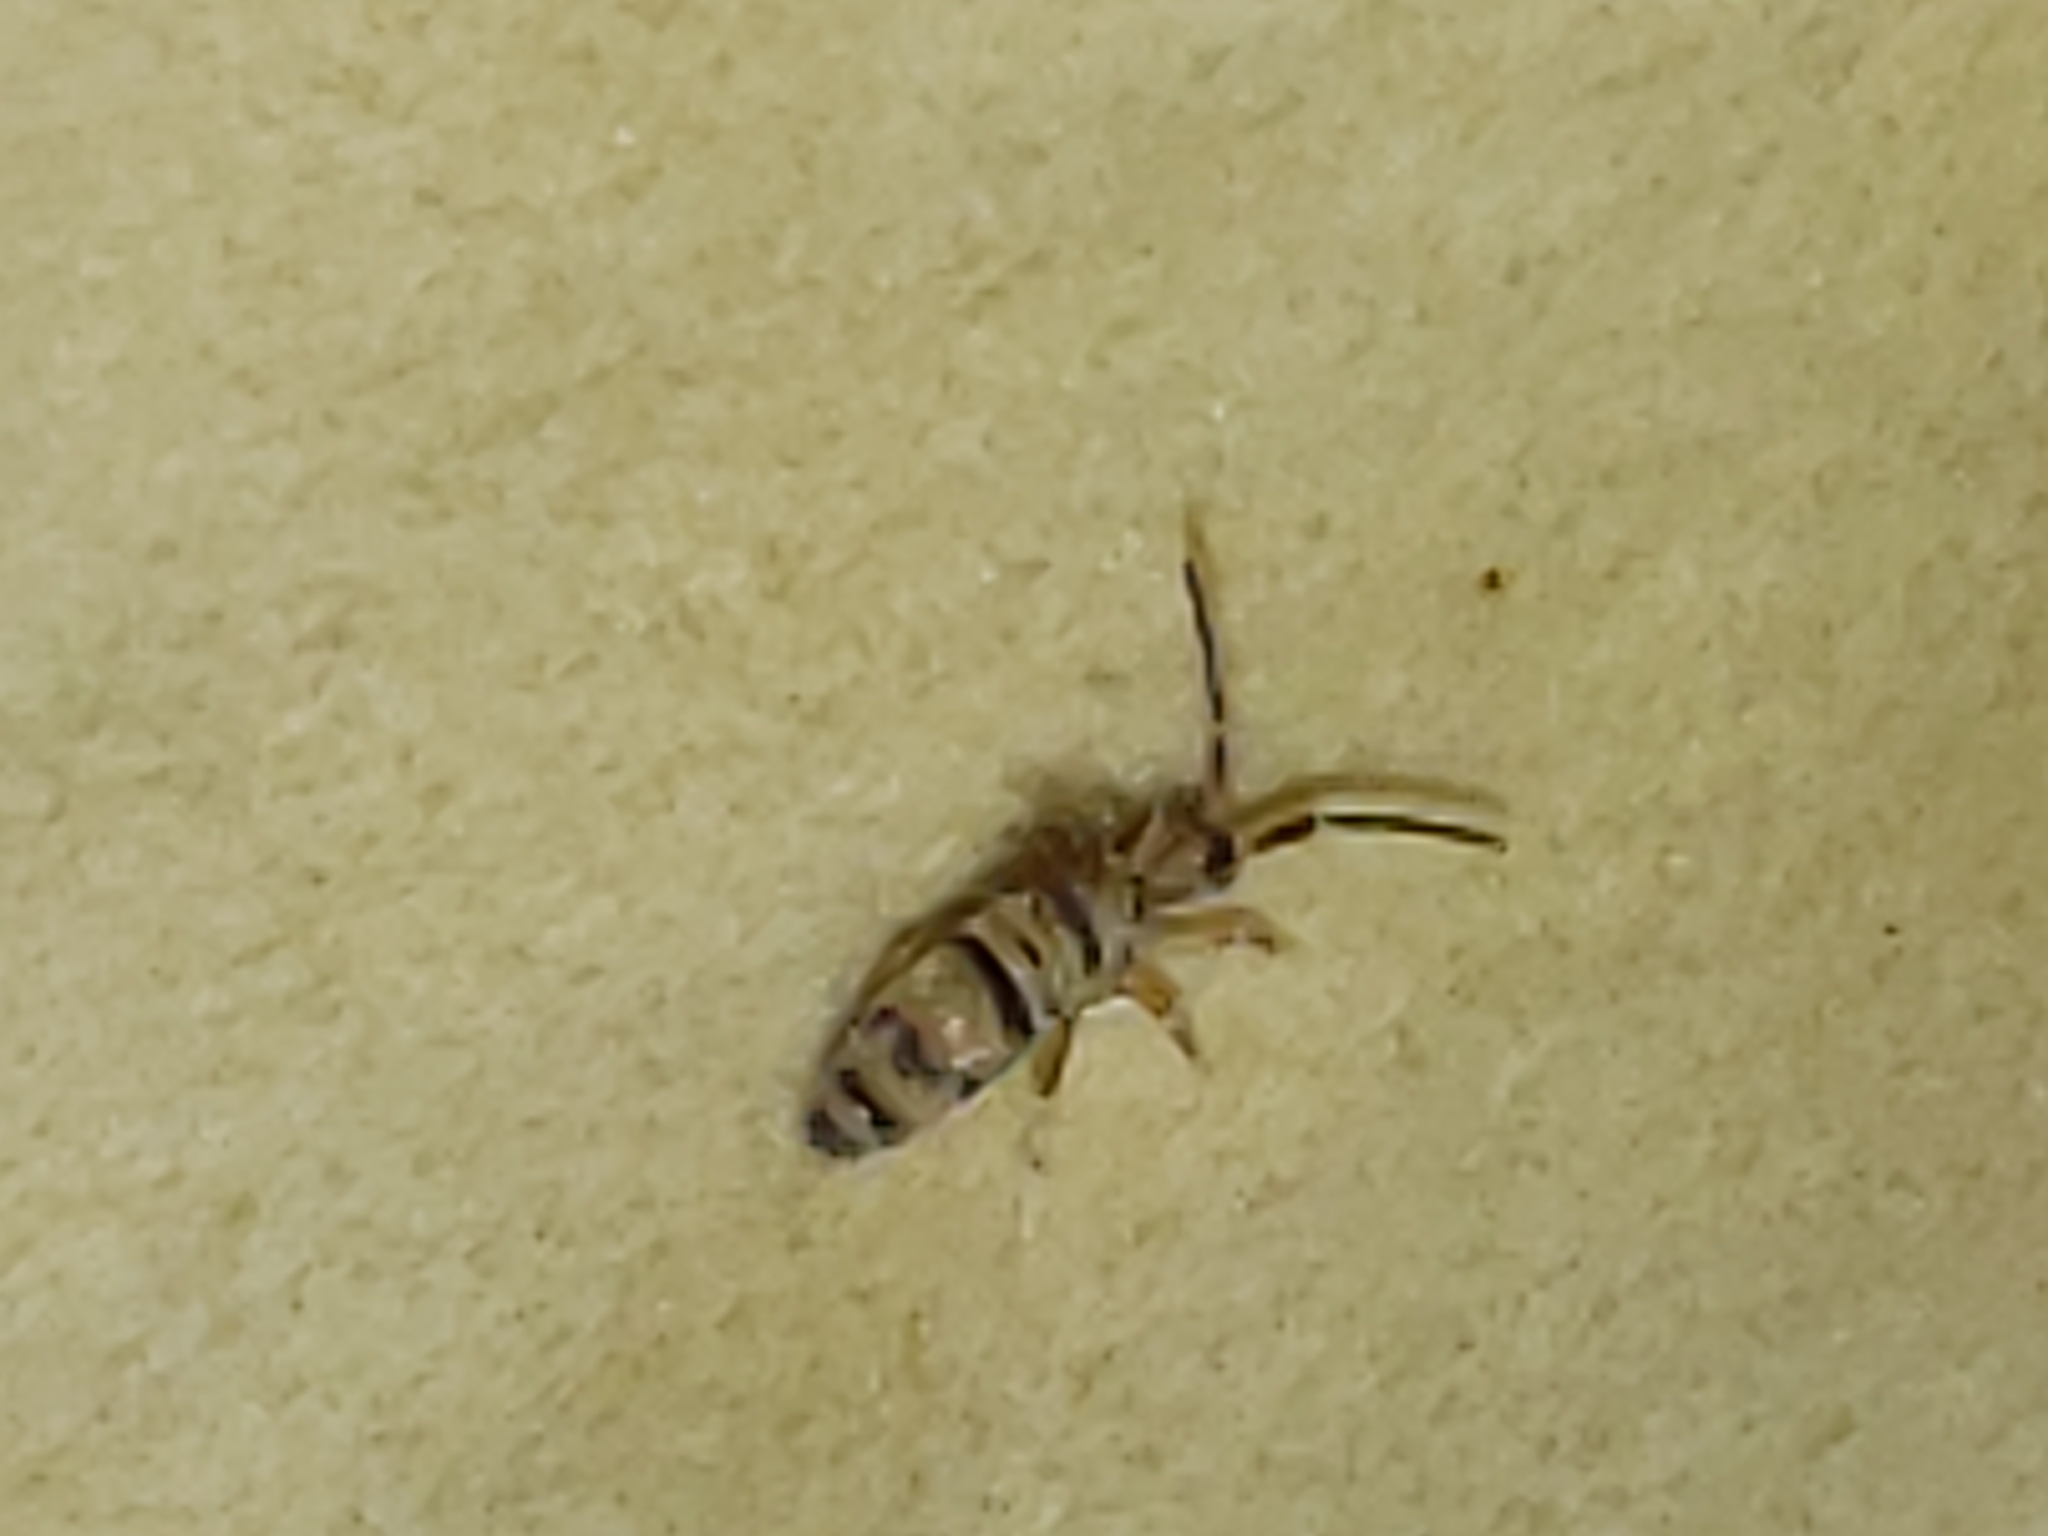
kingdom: Animalia
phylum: Arthropoda
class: Collembola
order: Entomobryomorpha
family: Entomobryidae
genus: Homidia
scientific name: Homidia sauteri
